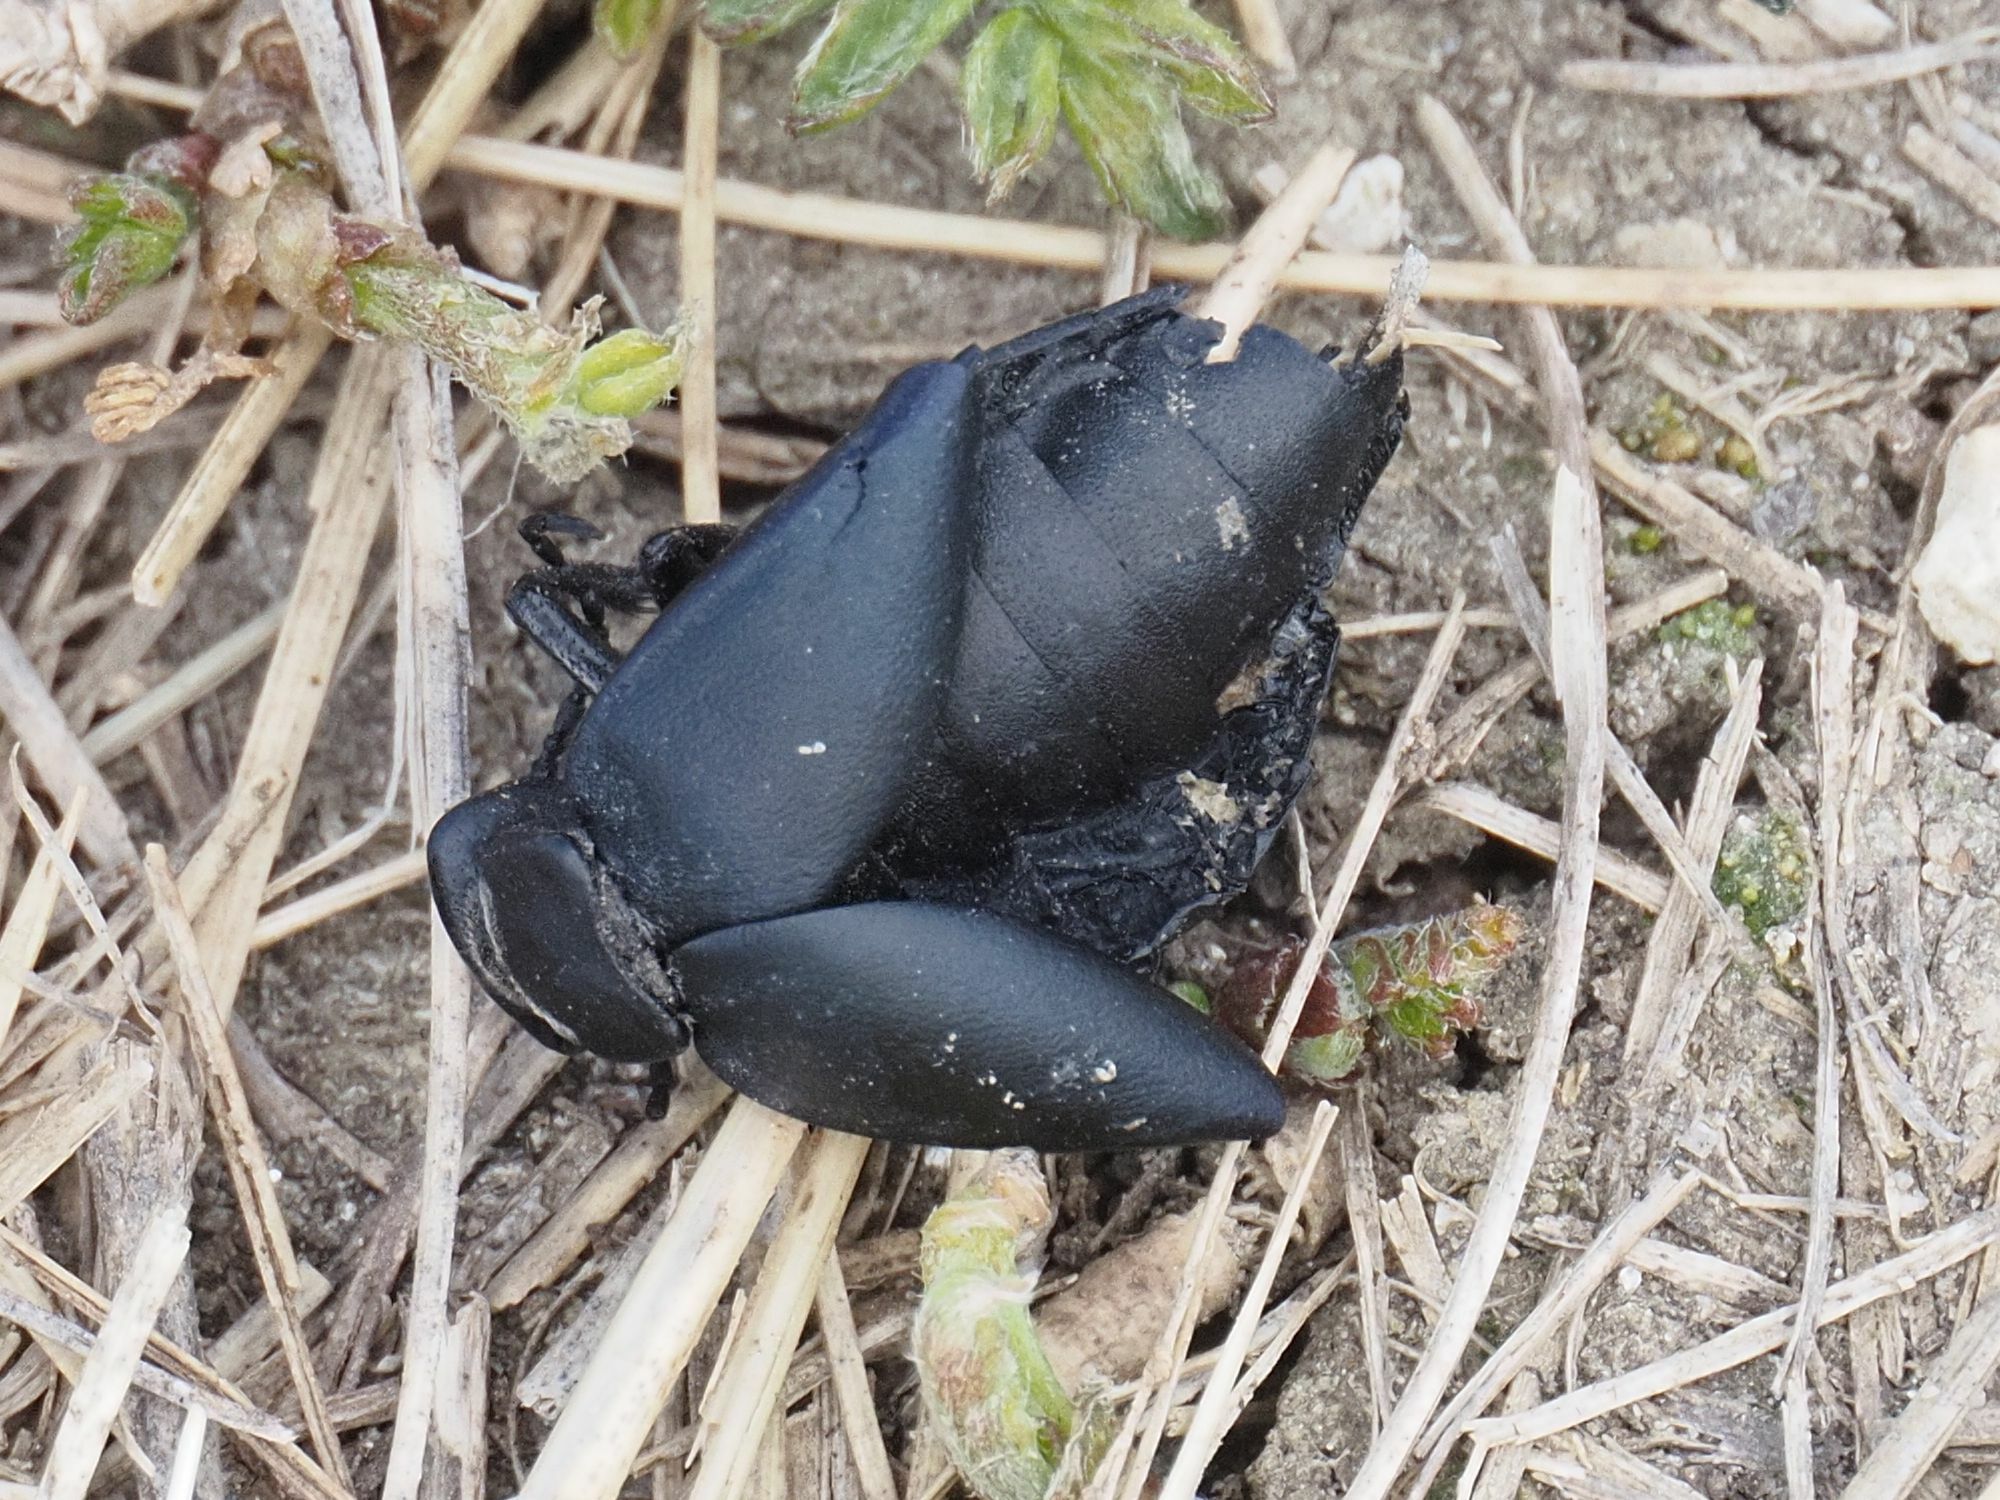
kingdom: Animalia
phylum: Arthropoda
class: Insecta
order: Coleoptera
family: Meloidae
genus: Meloe
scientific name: Meloe uralensis
